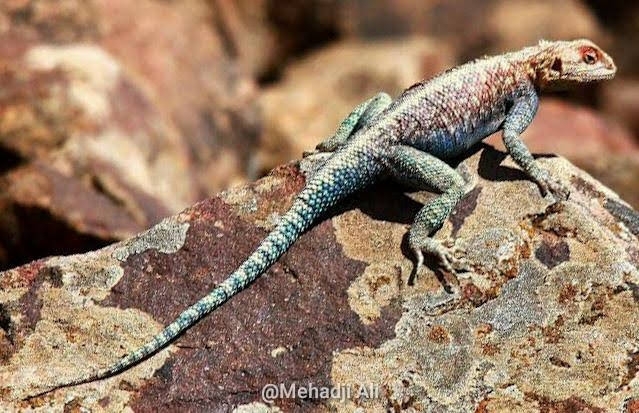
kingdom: Animalia
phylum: Chordata
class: Squamata
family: Agamidae
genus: Agama
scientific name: Agama impalearis
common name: Bibron's agama
